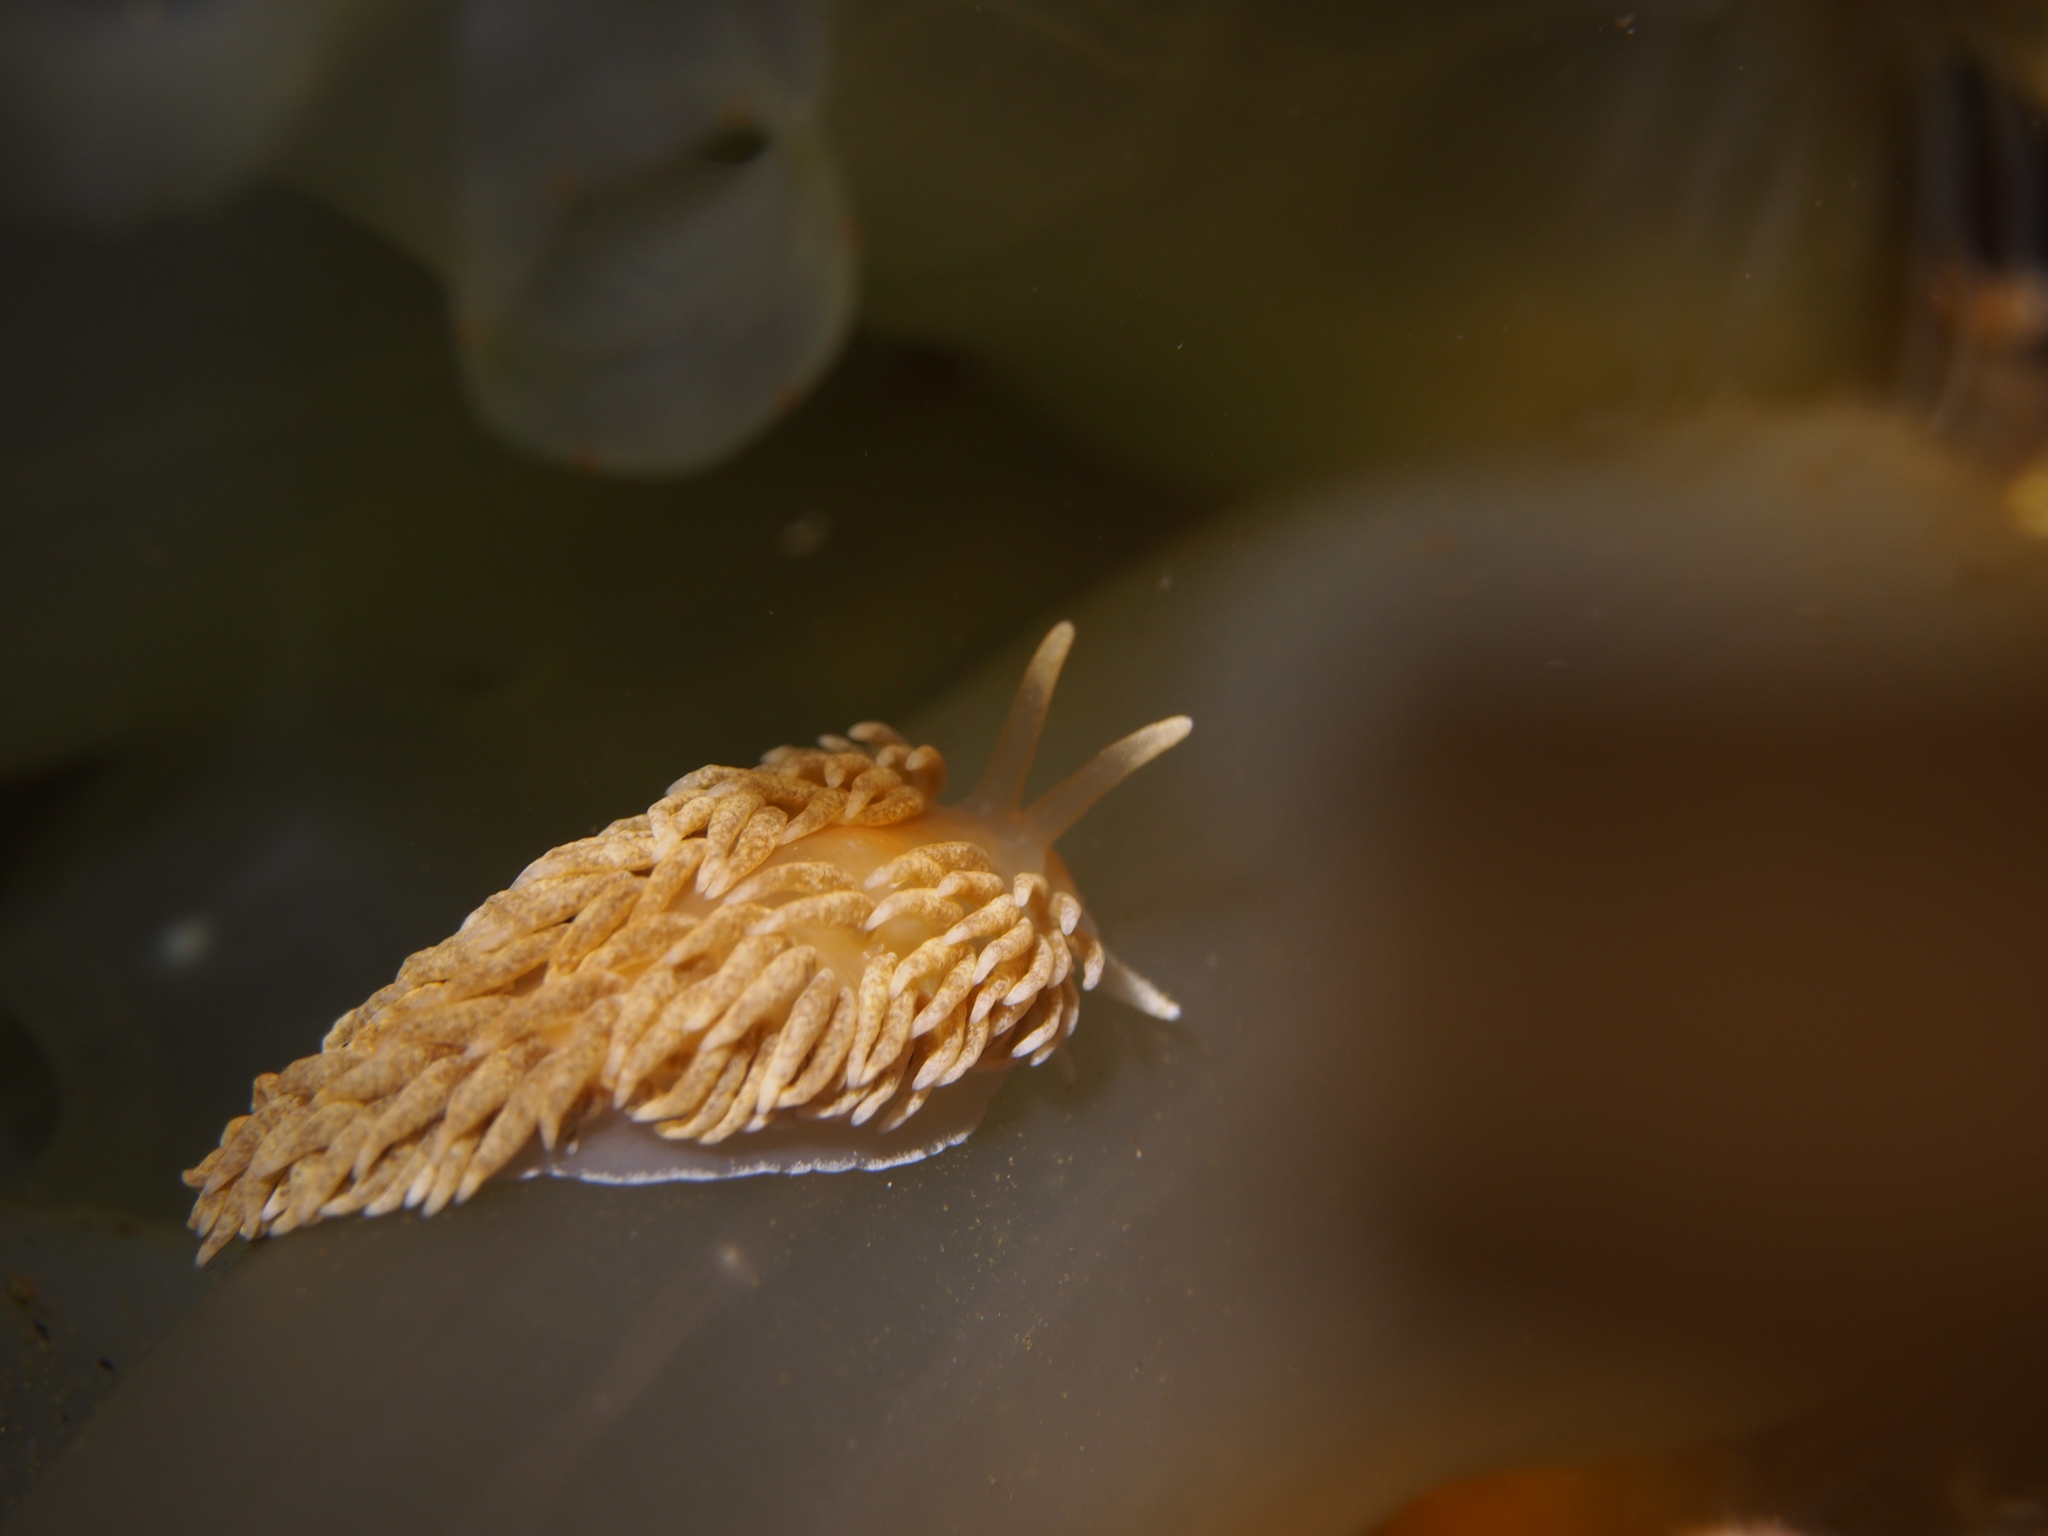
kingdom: Animalia
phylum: Mollusca
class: Gastropoda
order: Nudibranchia
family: Aeolidiidae
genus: Aeolidiella
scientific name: Aeolidiella glauca
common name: Orange-brown aeolid
